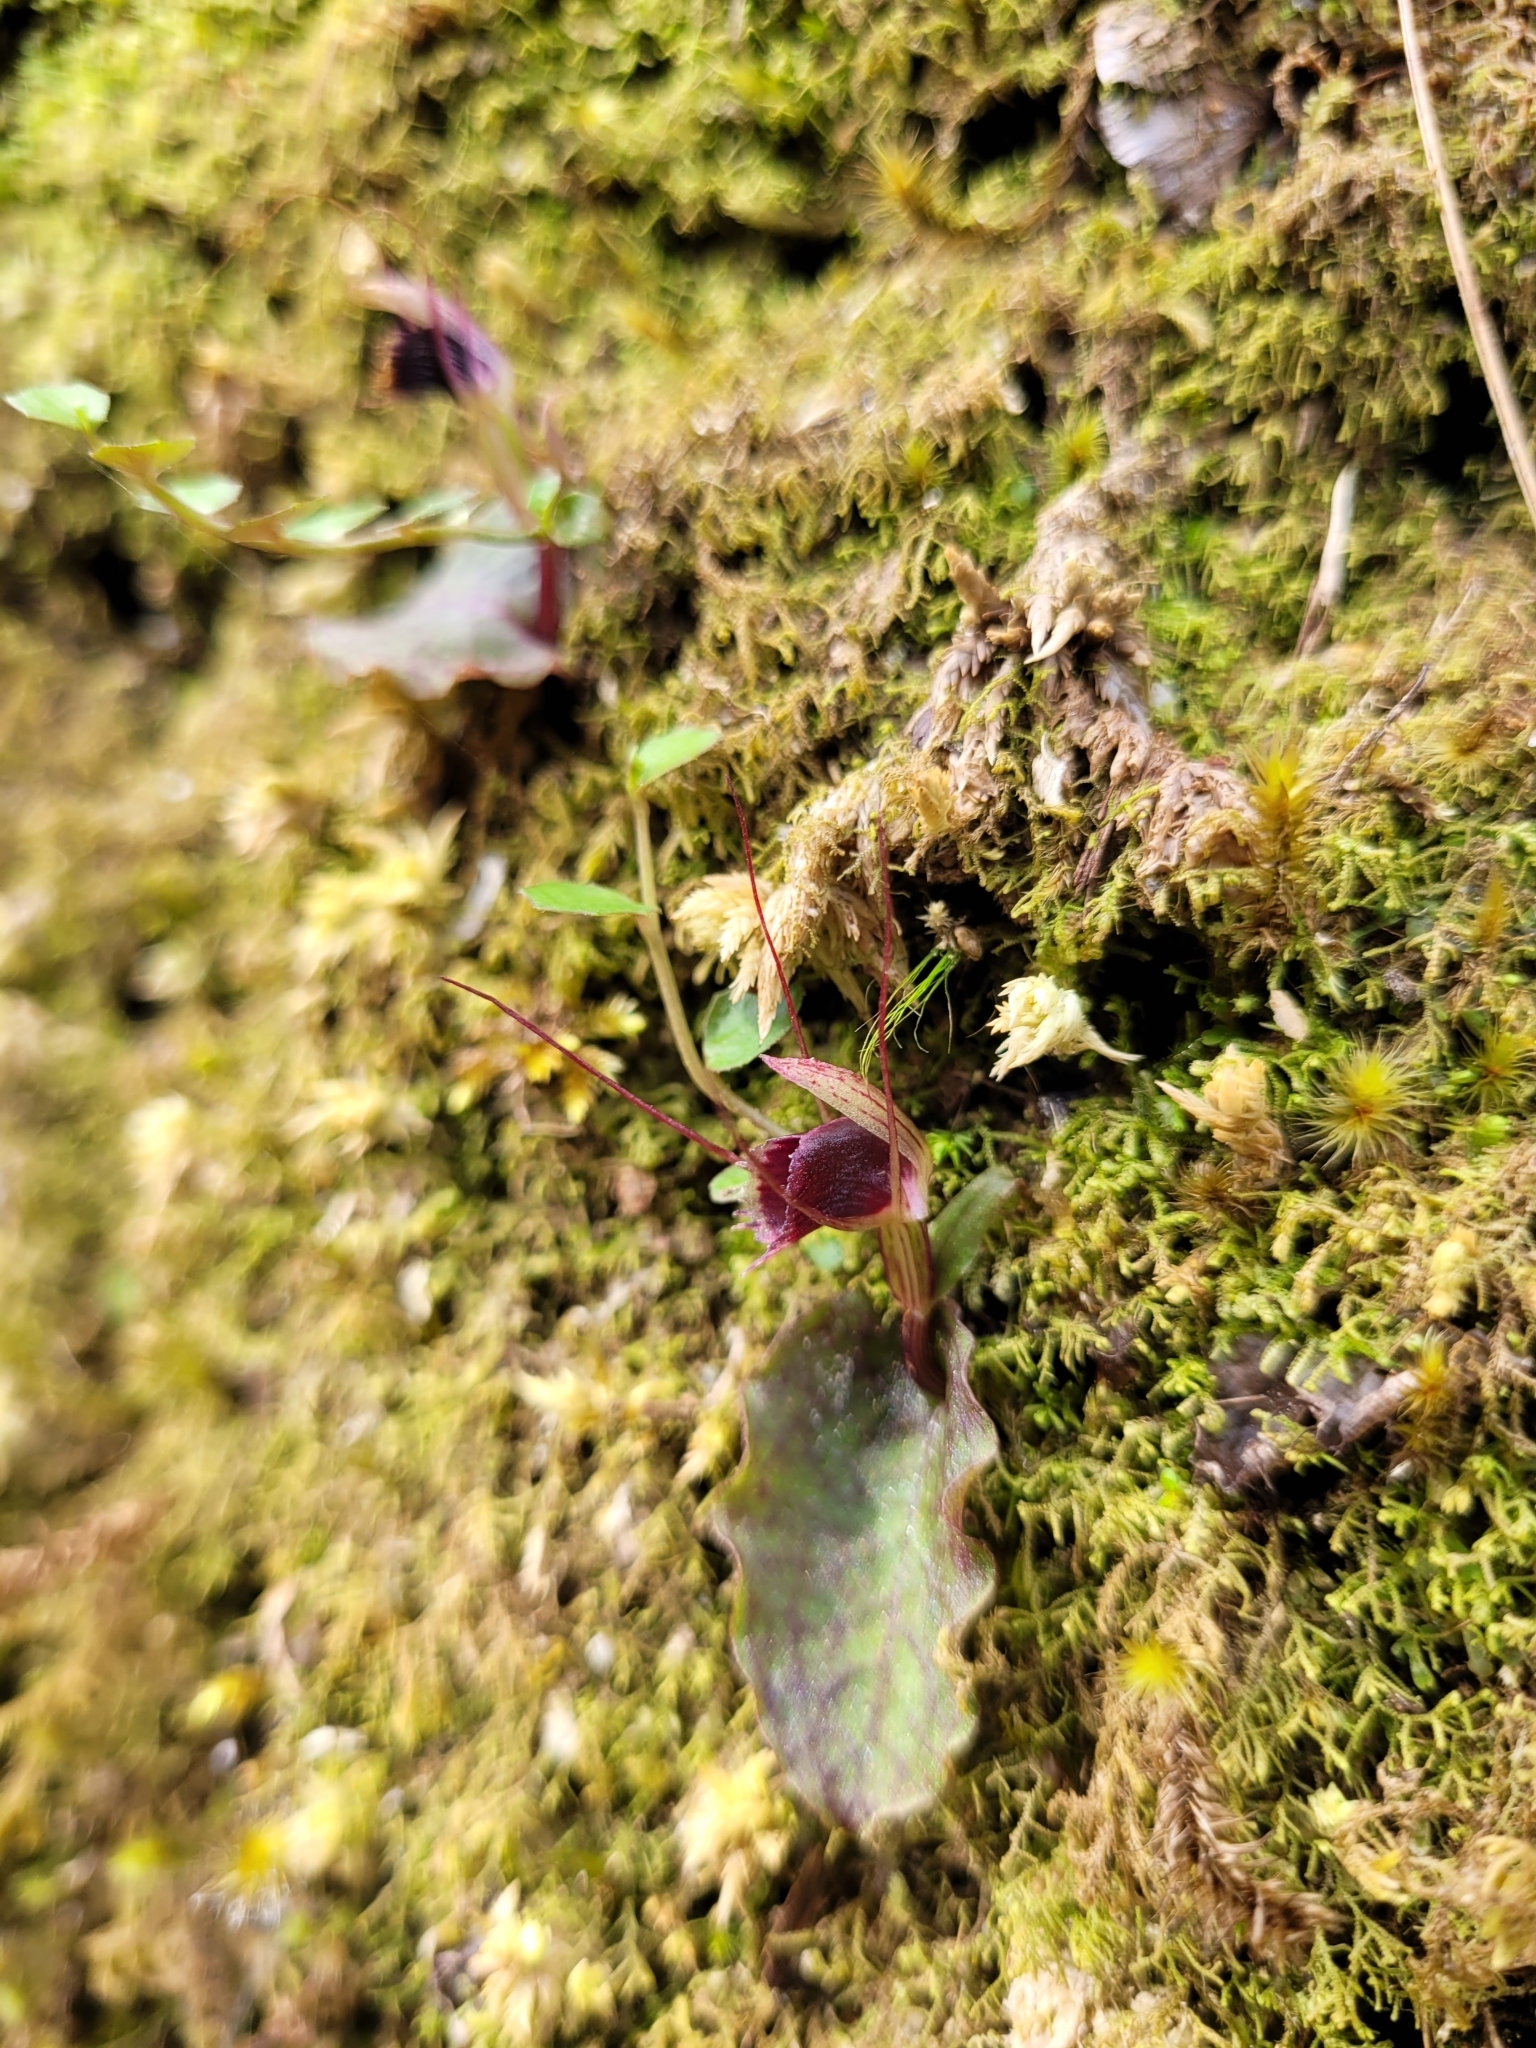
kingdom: Plantae
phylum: Tracheophyta
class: Liliopsida
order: Asparagales
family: Orchidaceae
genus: Corybas
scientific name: Corybas oblongus
